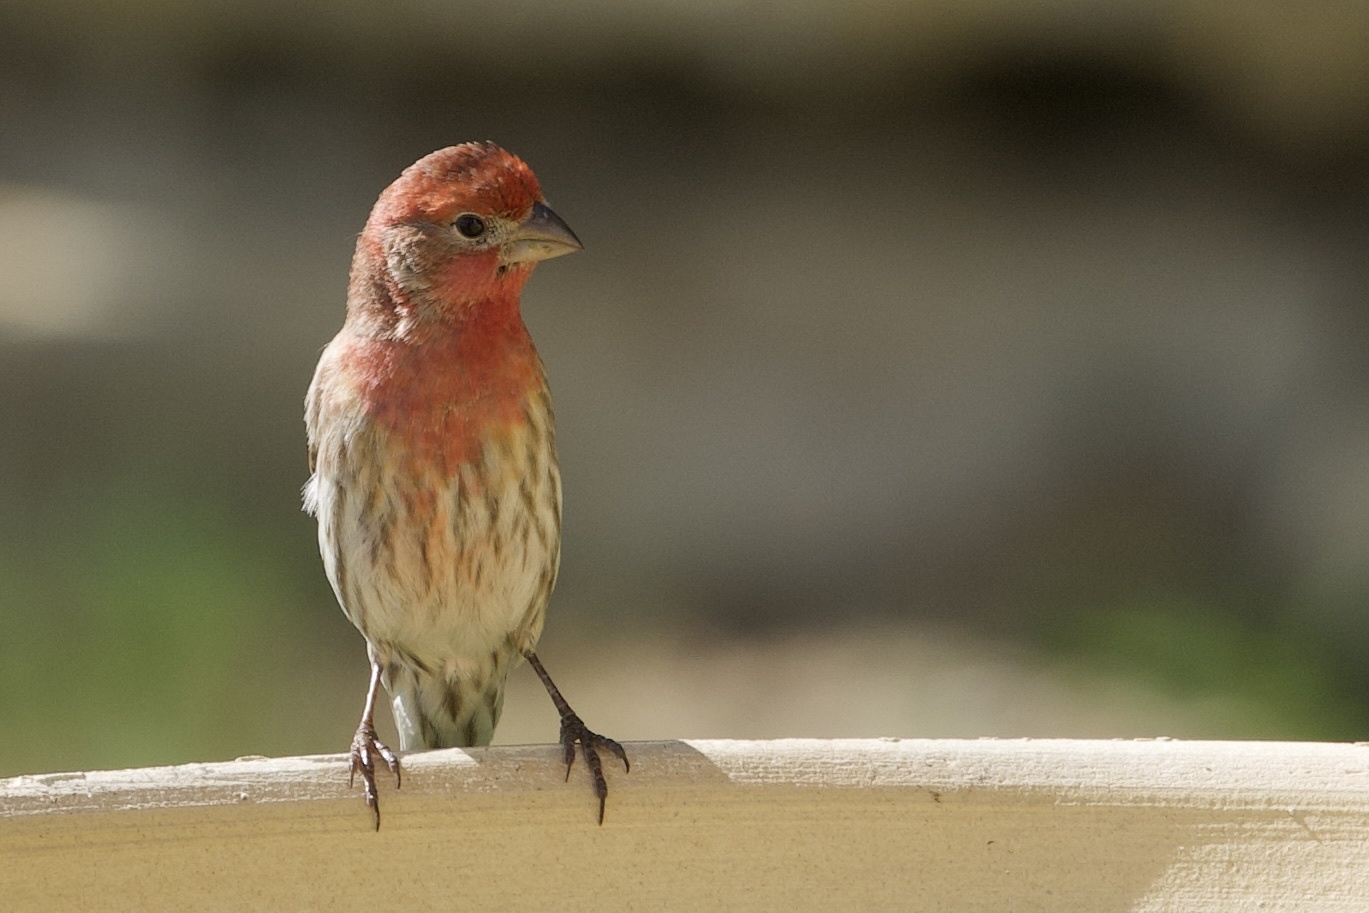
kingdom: Animalia
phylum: Chordata
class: Aves
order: Passeriformes
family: Fringillidae
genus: Haemorhous
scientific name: Haemorhous mexicanus
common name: House finch
